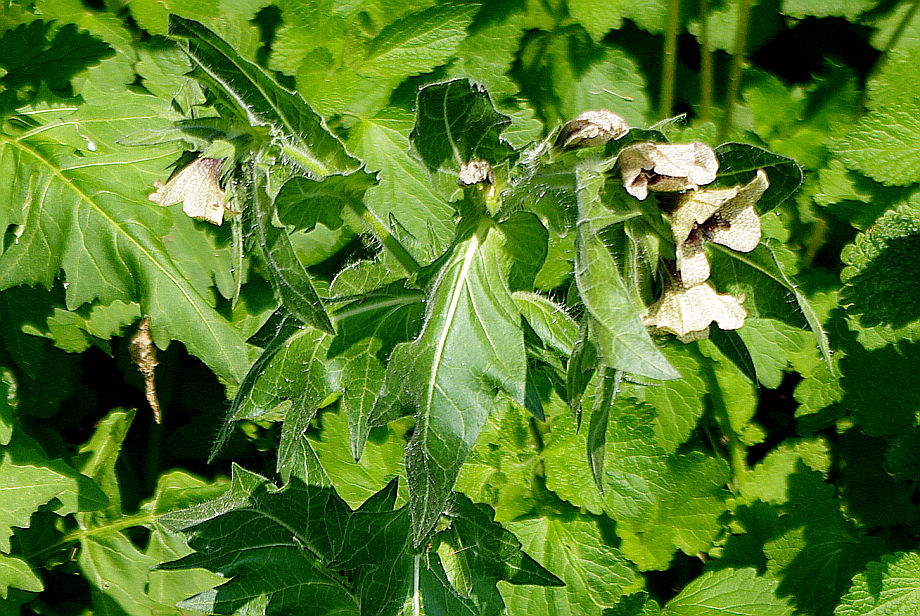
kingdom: Plantae
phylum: Tracheophyta
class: Magnoliopsida
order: Solanales
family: Solanaceae
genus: Hyoscyamus
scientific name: Hyoscyamus niger
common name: Henbane
